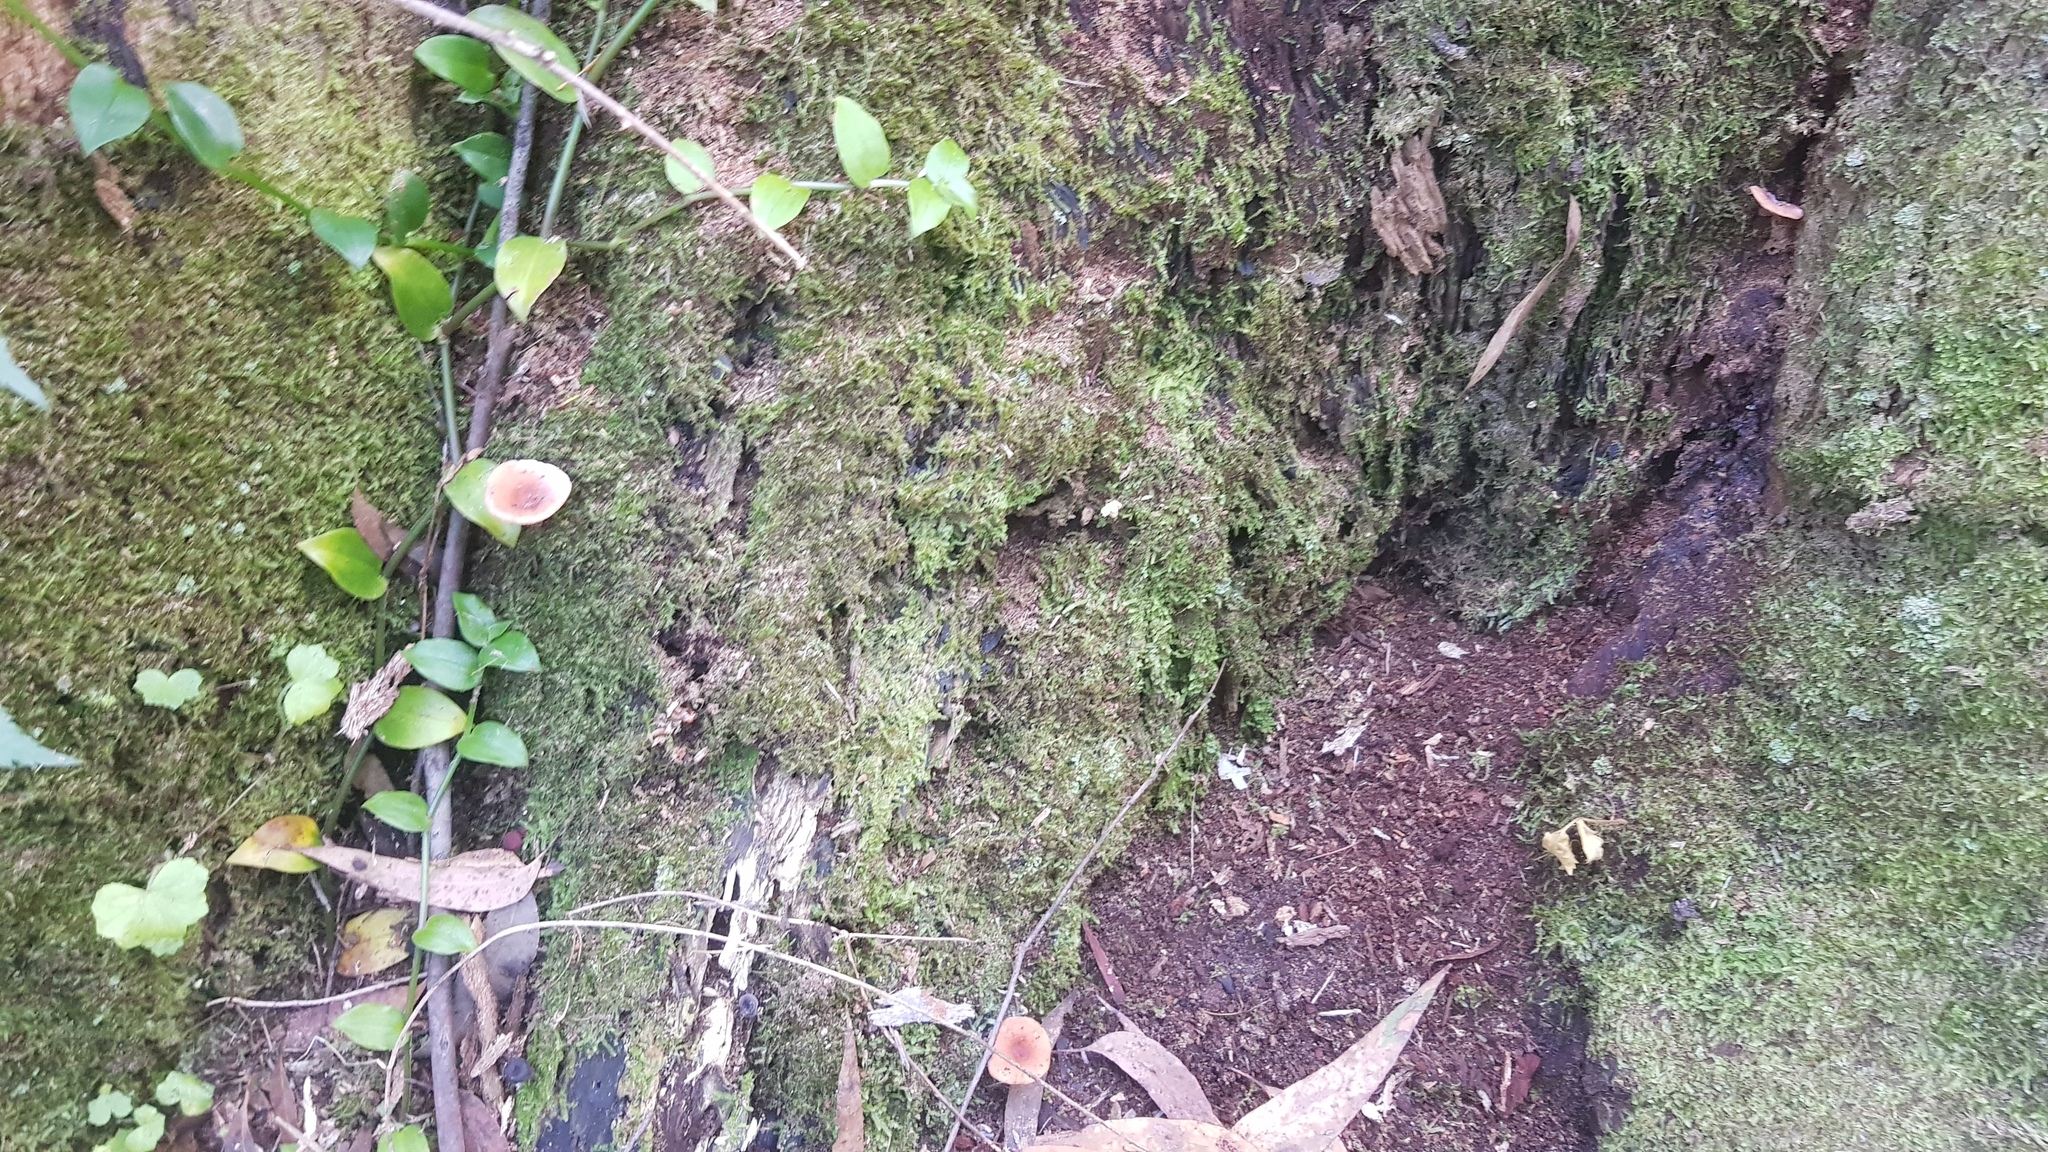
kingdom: Fungi
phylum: Basidiomycota
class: Agaricomycetes
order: Russulales
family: Russulaceae
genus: Lactarius
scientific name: Lactarius eucalypti
